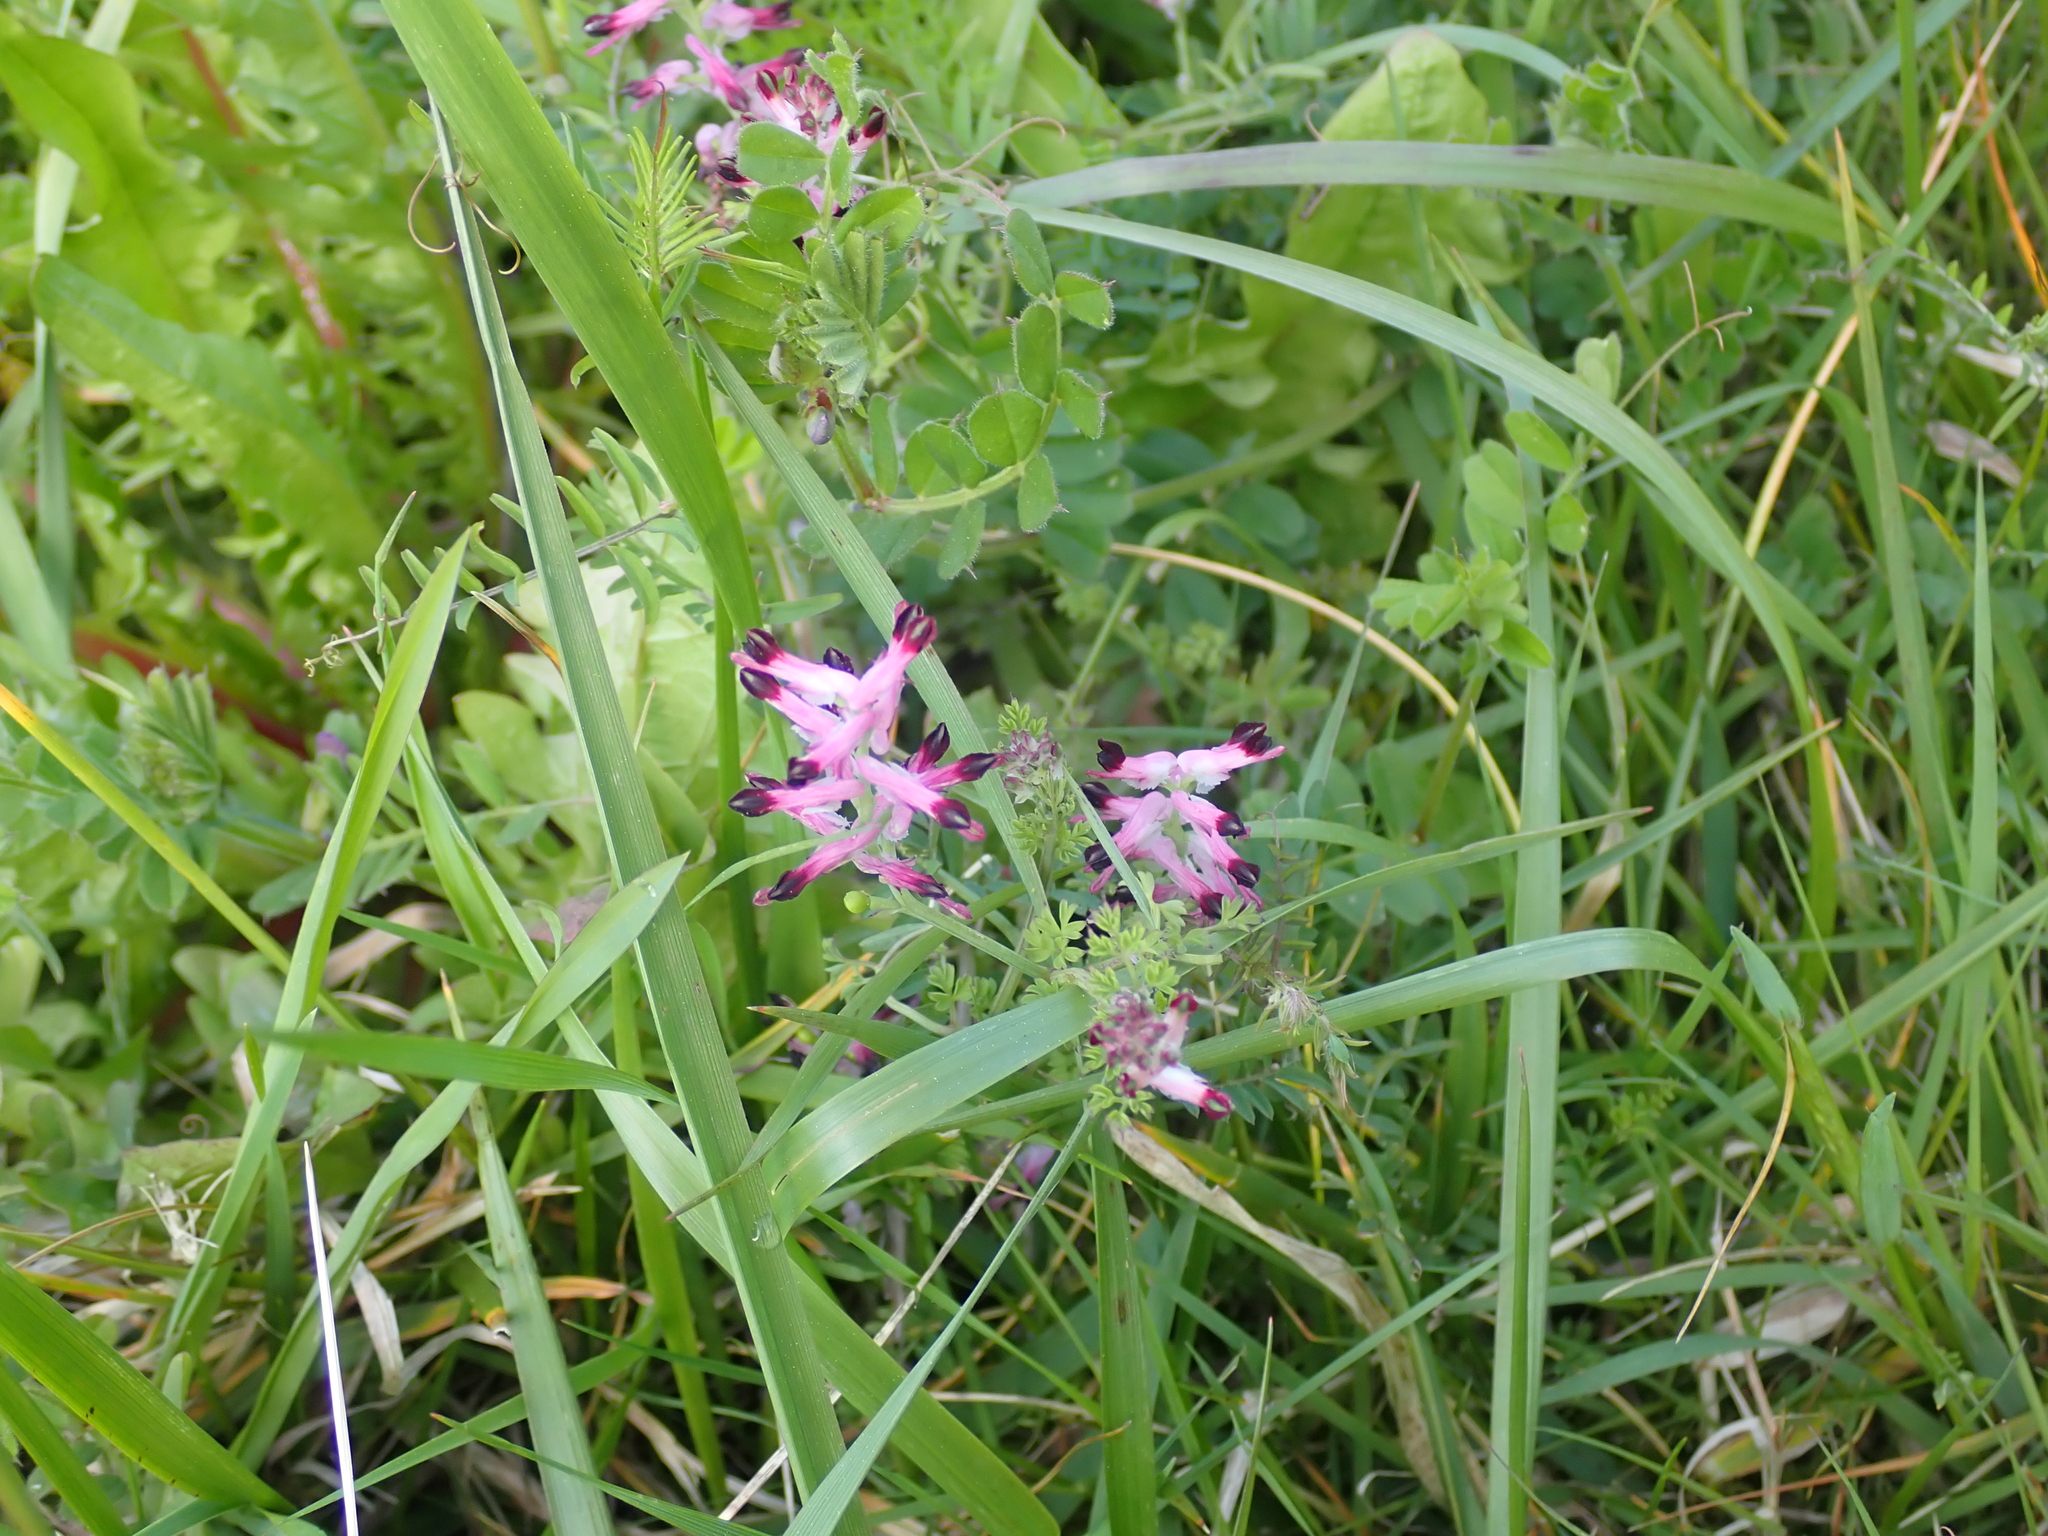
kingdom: Plantae
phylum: Tracheophyta
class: Magnoliopsida
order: Ranunculales
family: Papaveraceae
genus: Fumaria
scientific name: Fumaria muralis
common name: Common ramping-fumitory
